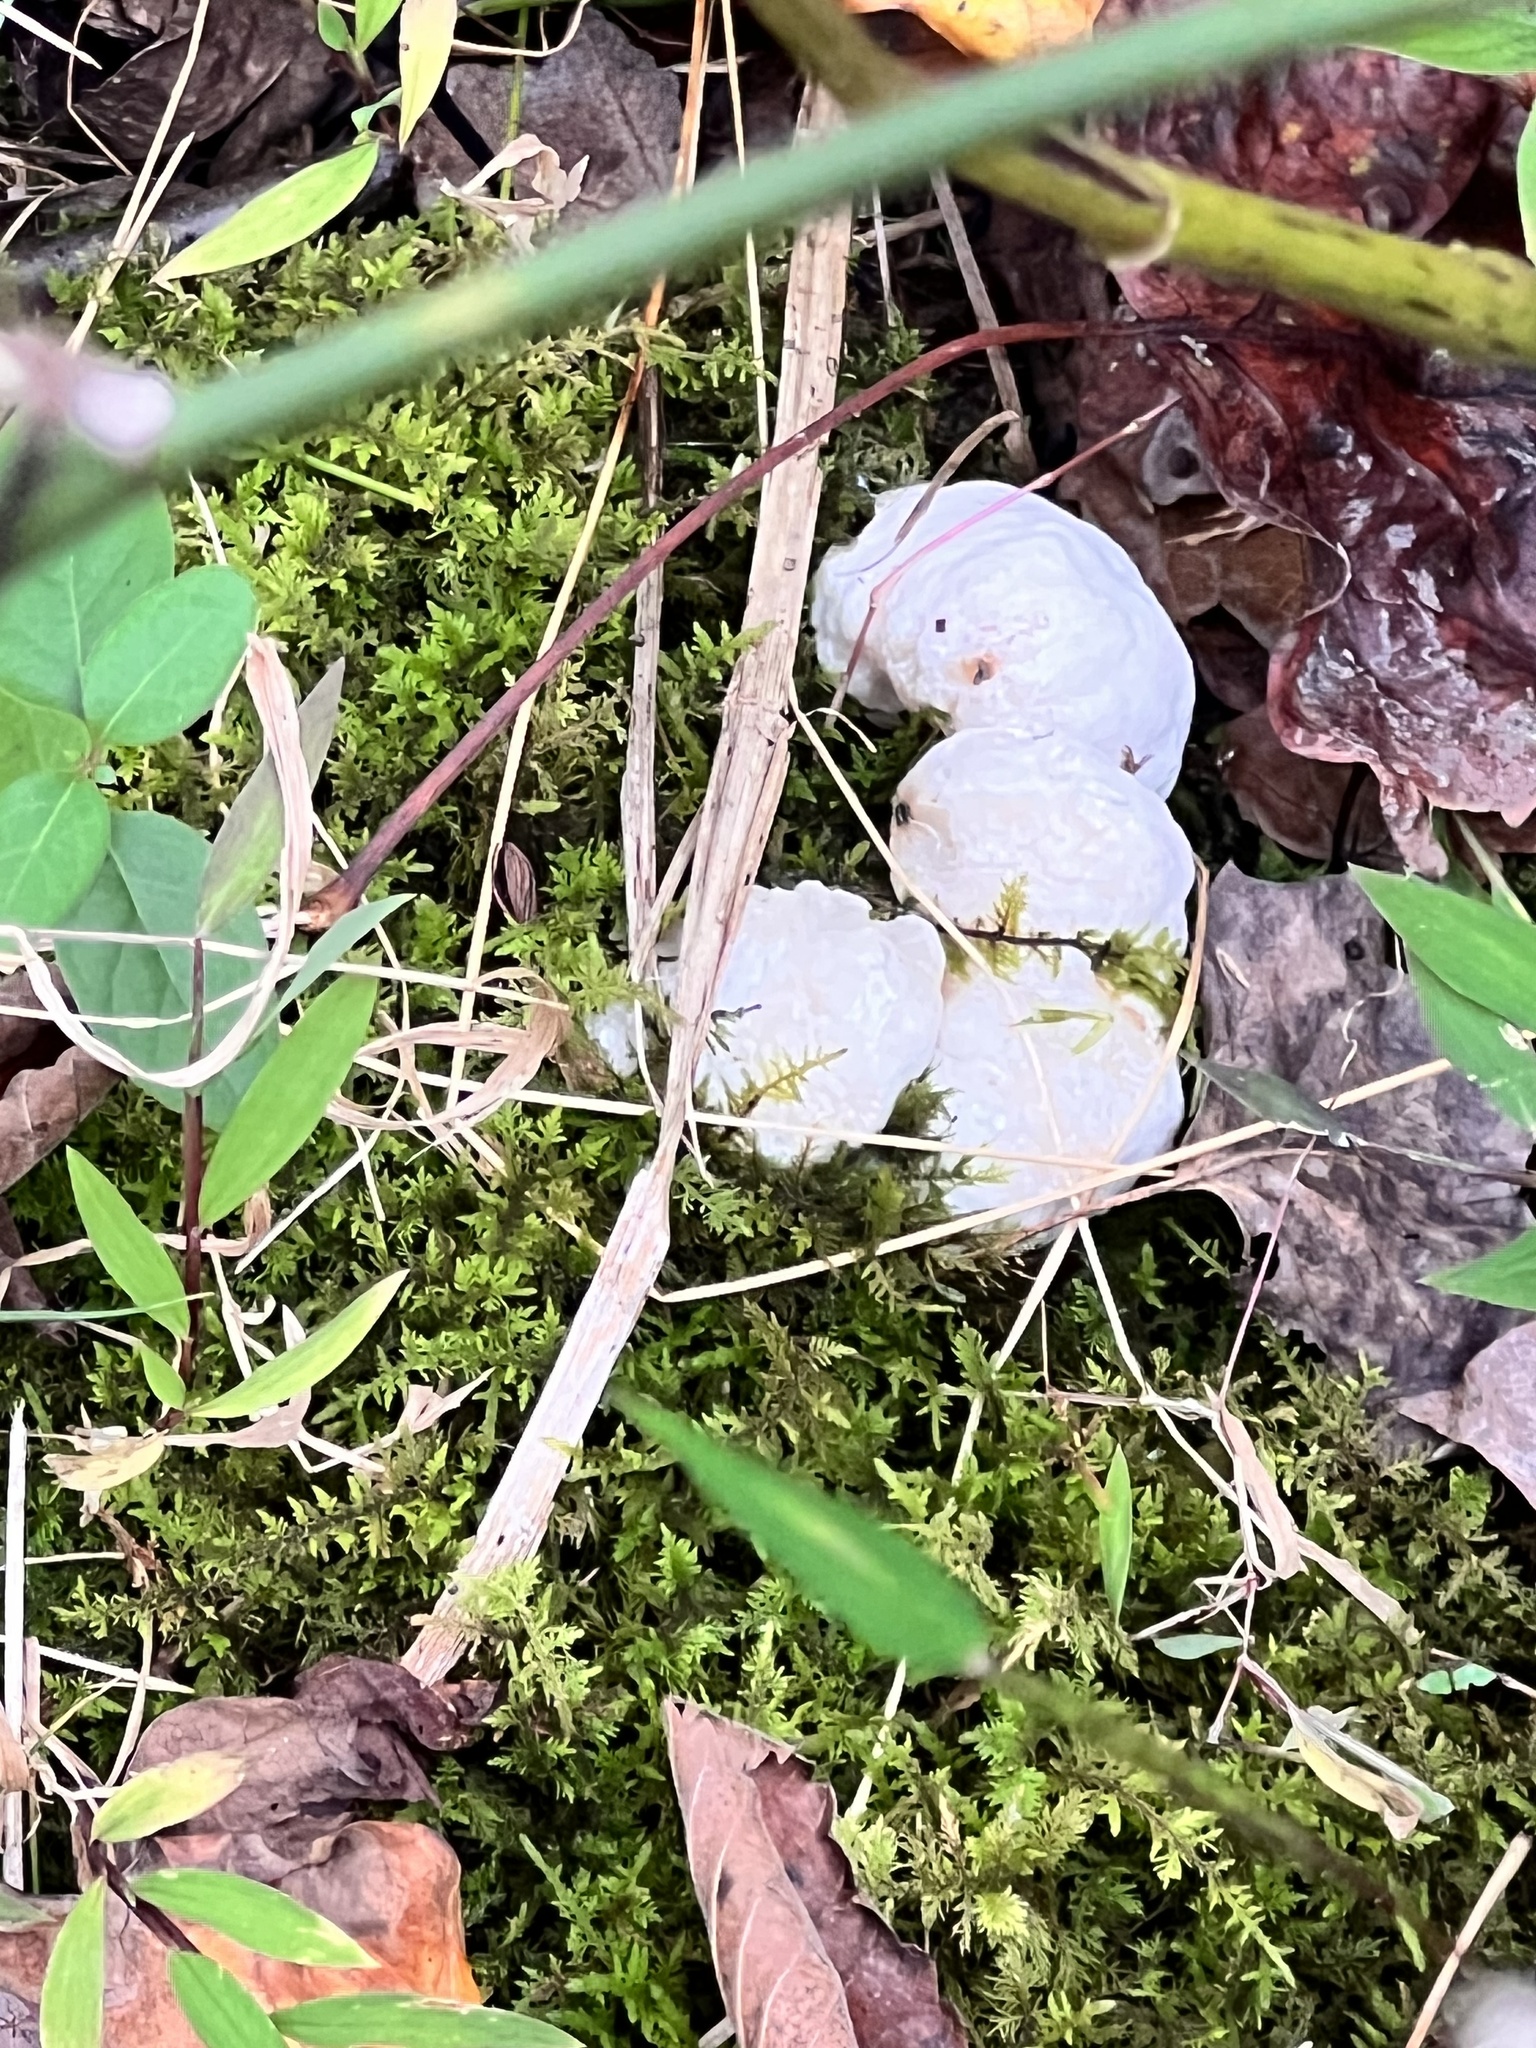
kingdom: Fungi
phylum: Basidiomycota
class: Agaricomycetes
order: Agaricales
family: Entolomataceae
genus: Entoloma
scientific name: Entoloma abortivum
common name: Aborted entoloma
